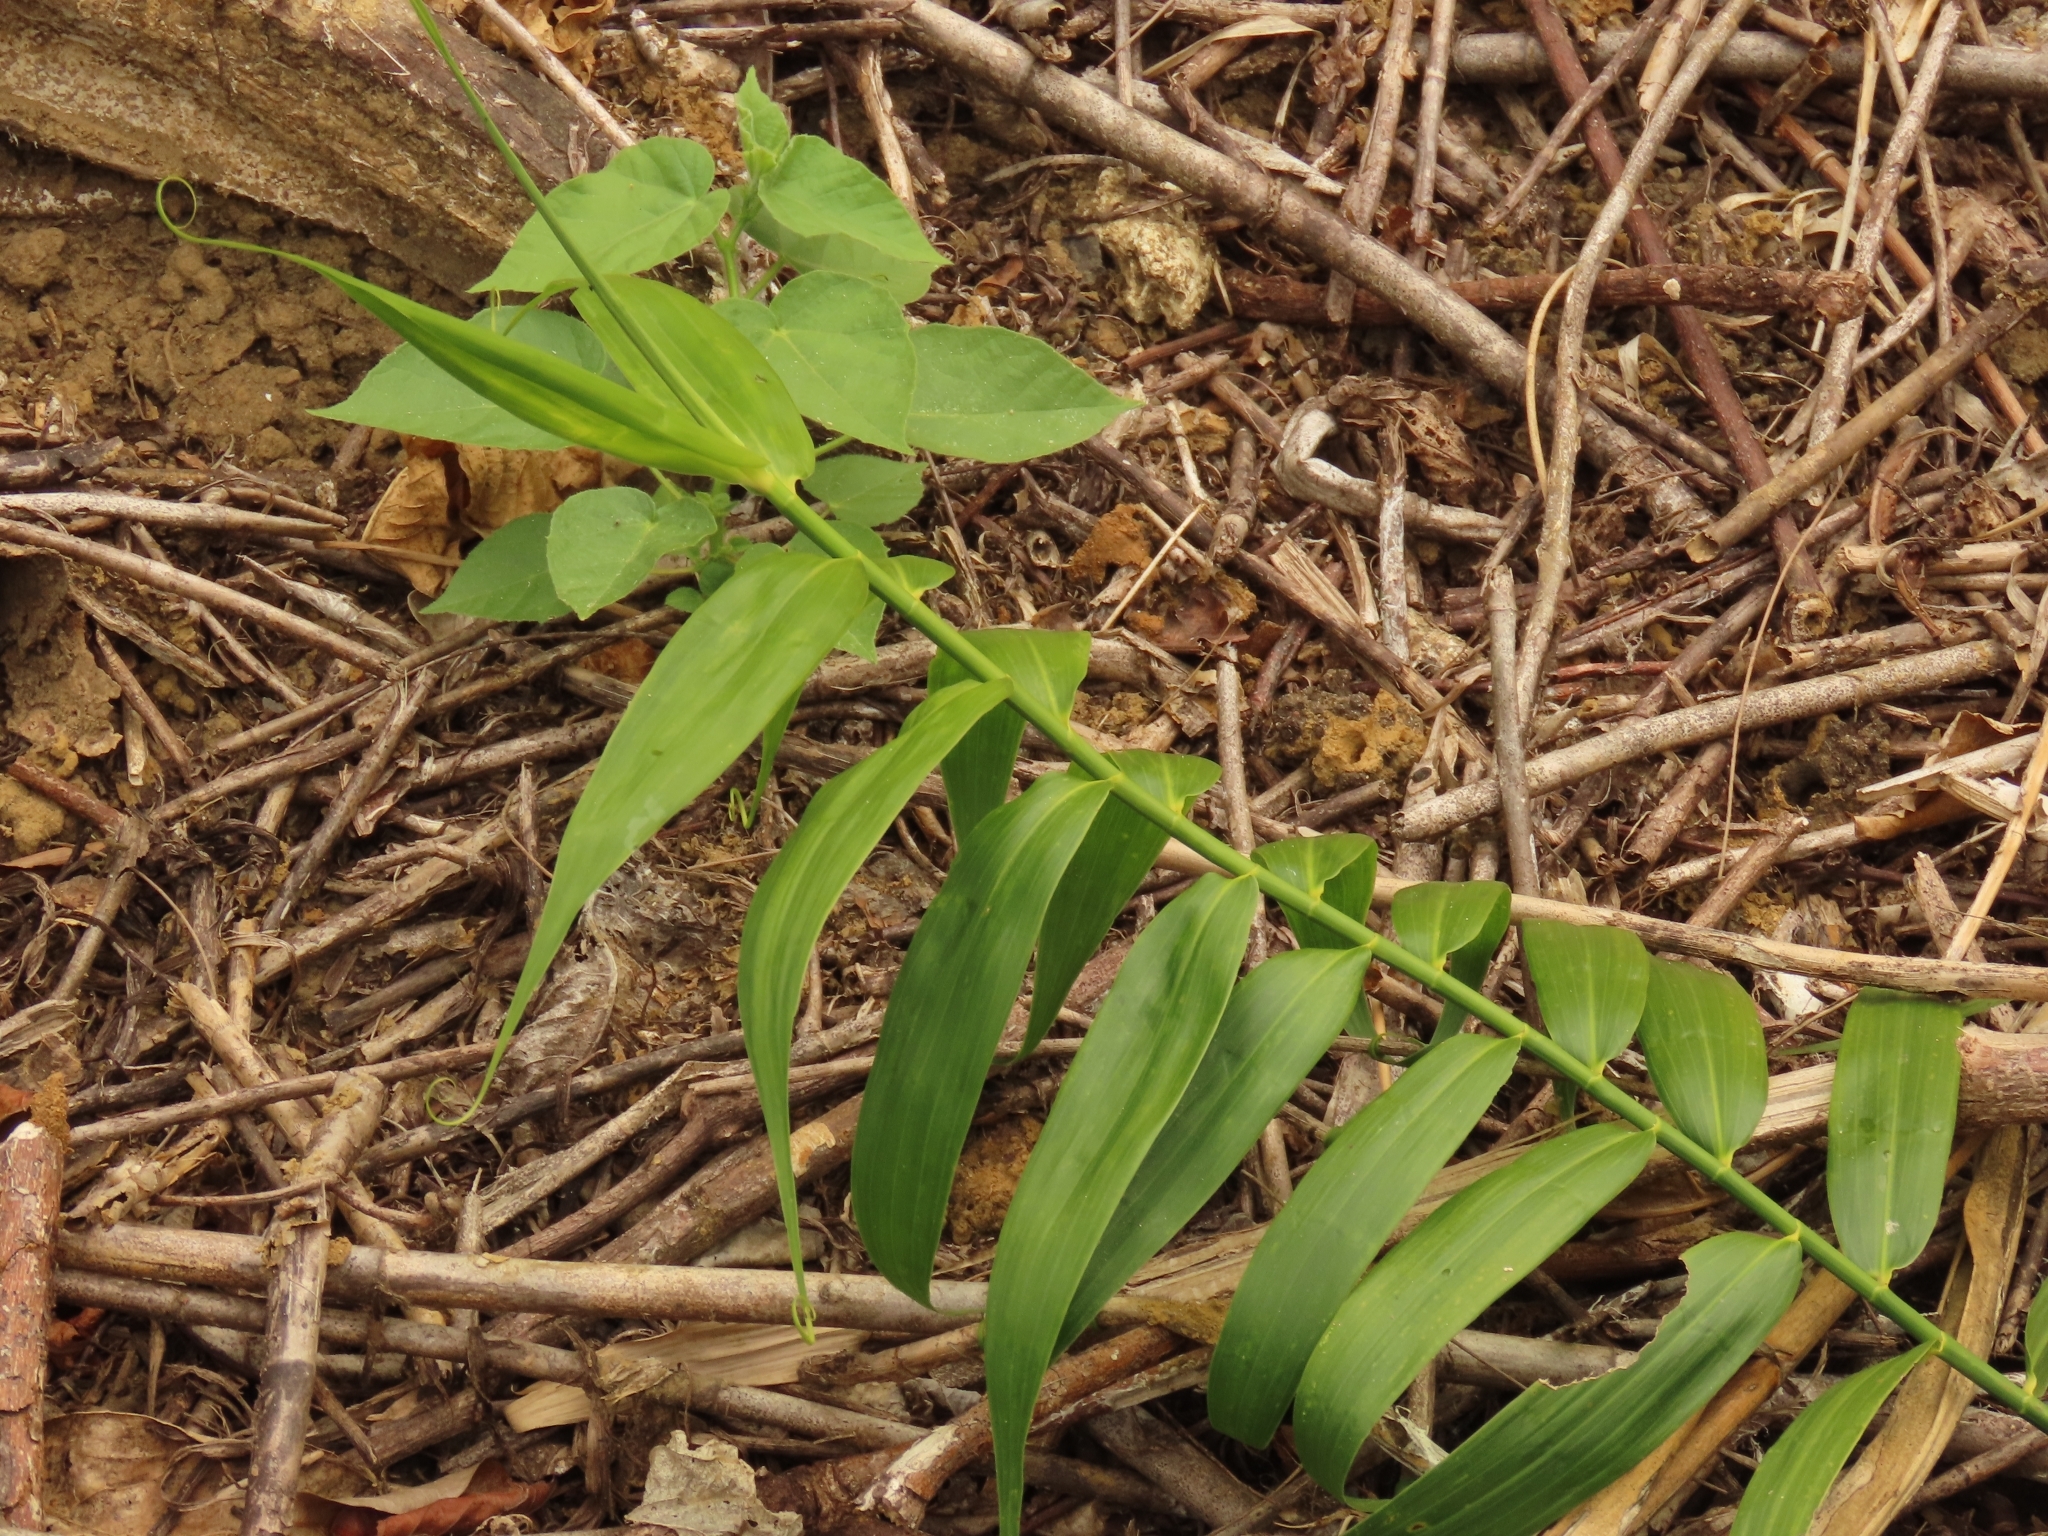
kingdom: Plantae
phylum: Tracheophyta
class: Liliopsida
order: Poales
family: Flagellariaceae
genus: Flagellaria
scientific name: Flagellaria indica
